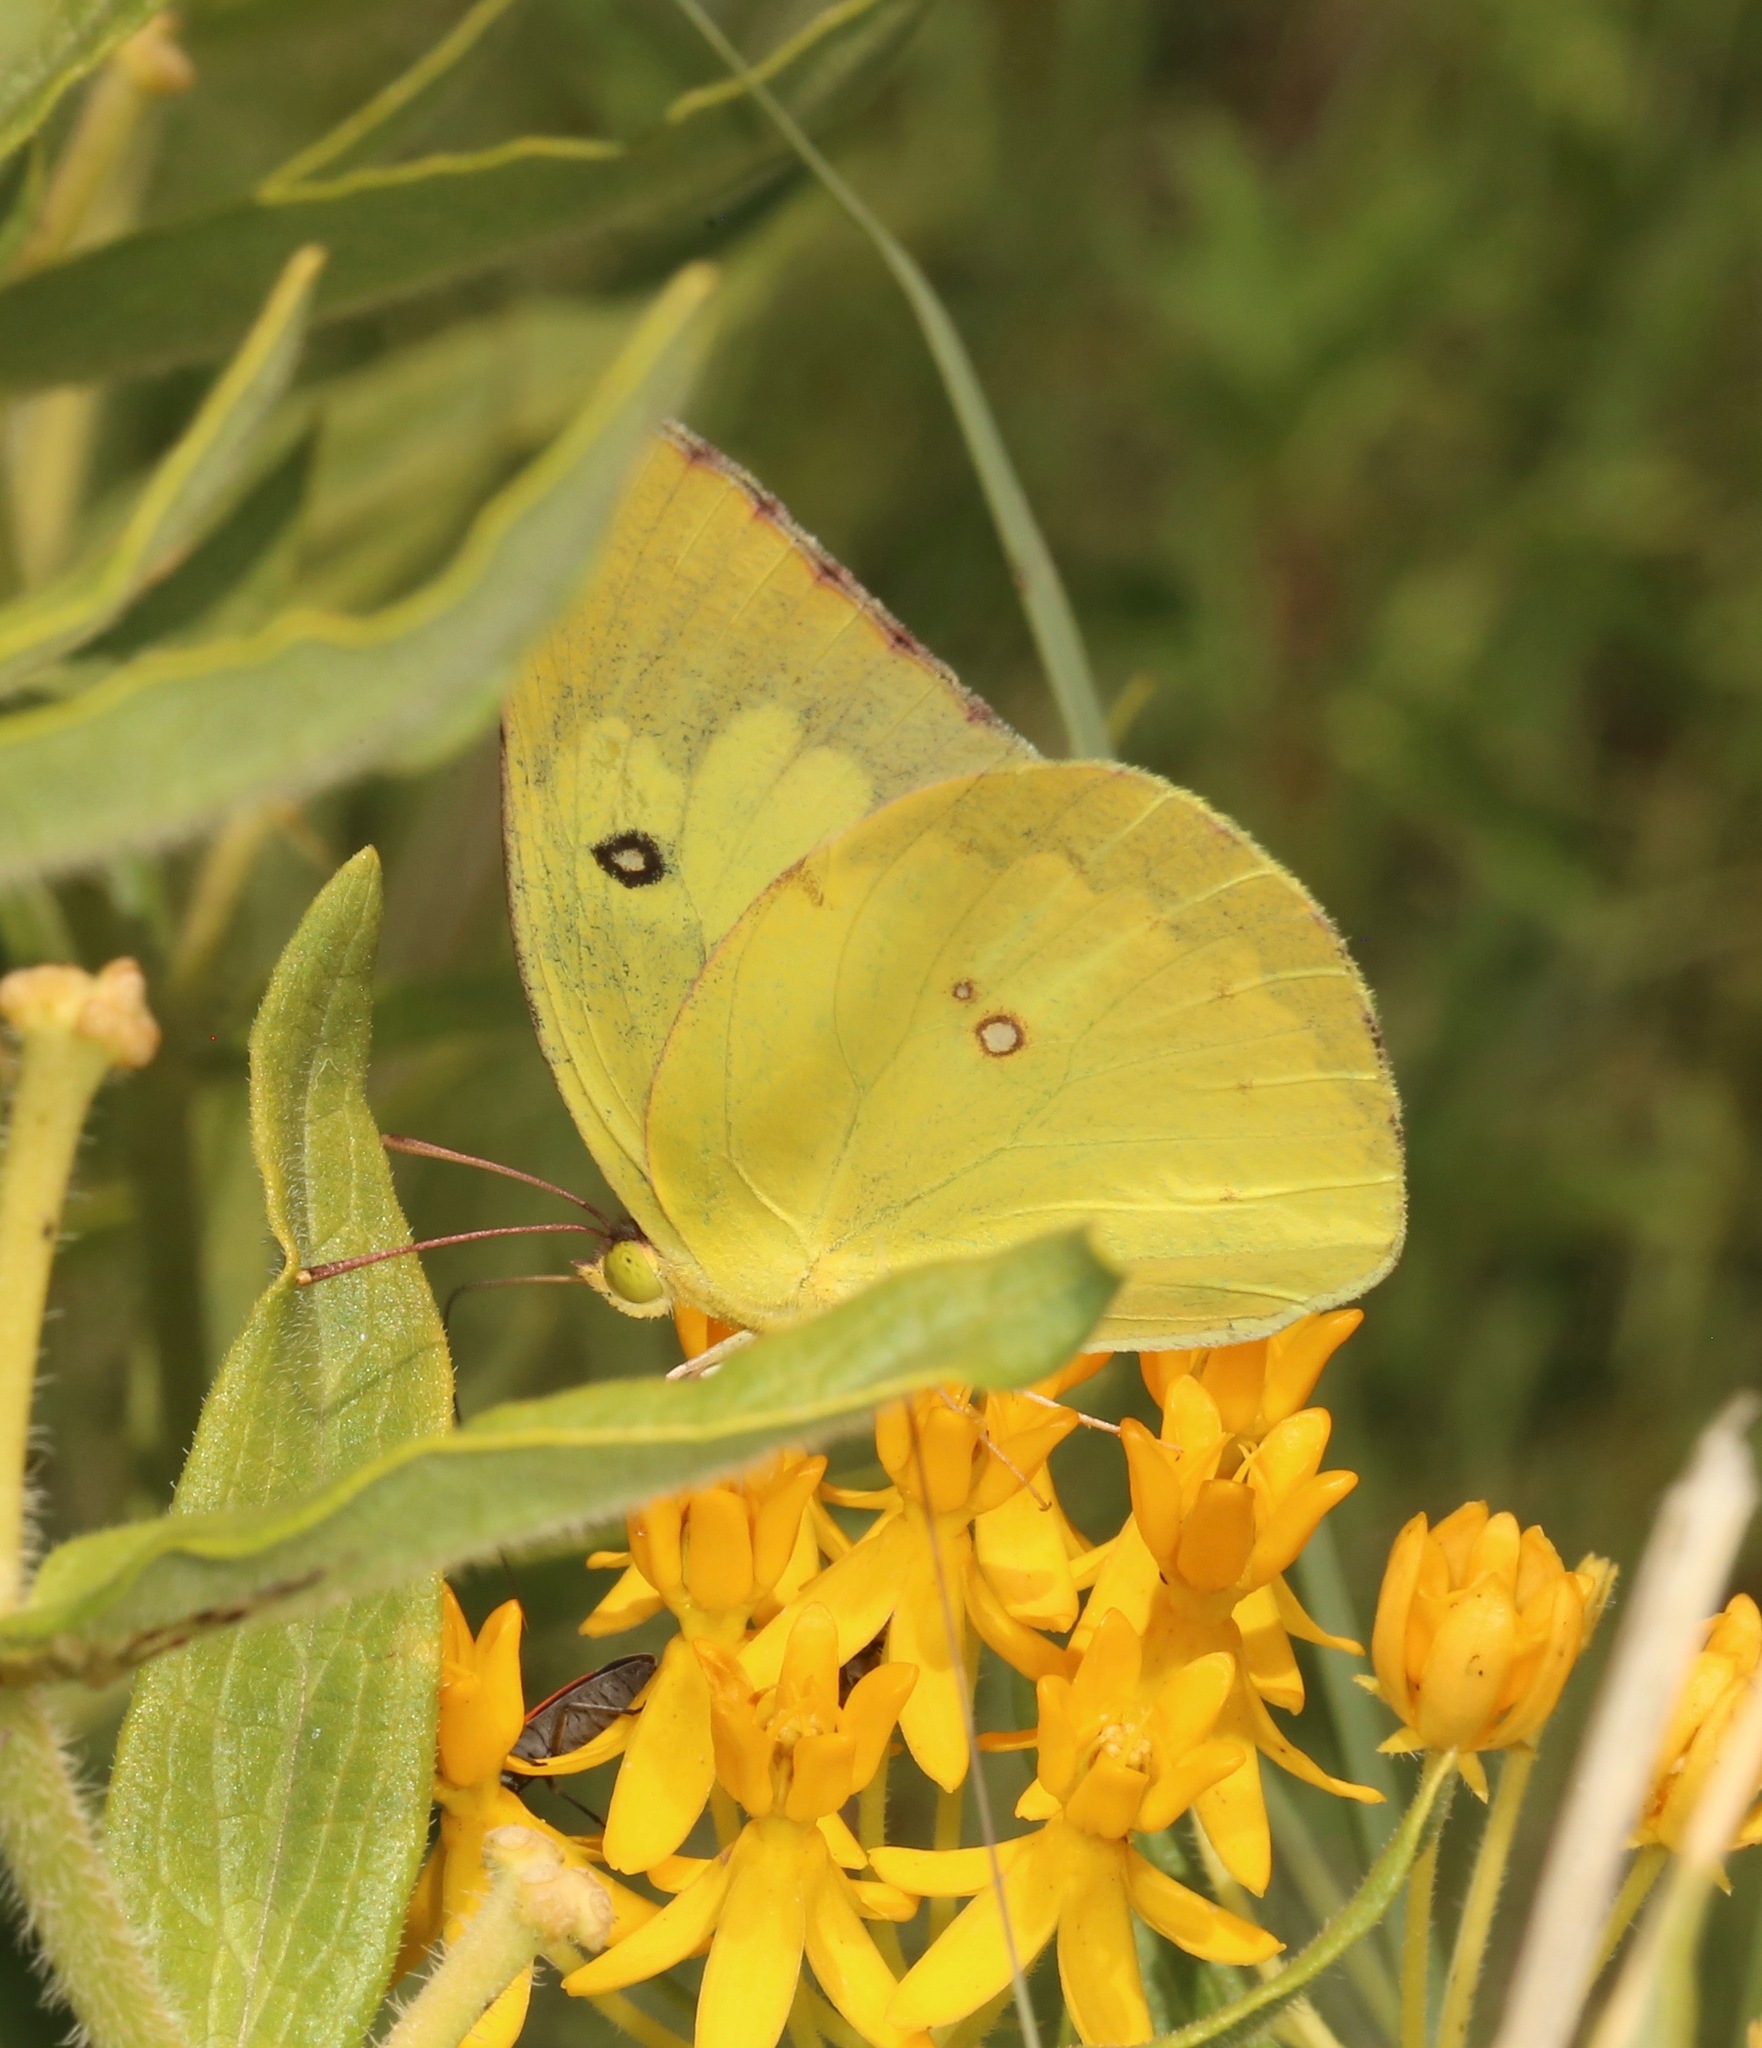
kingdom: Animalia
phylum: Arthropoda
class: Insecta
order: Lepidoptera
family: Pieridae
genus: Zerene
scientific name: Zerene cesonia
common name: Southern dogface
